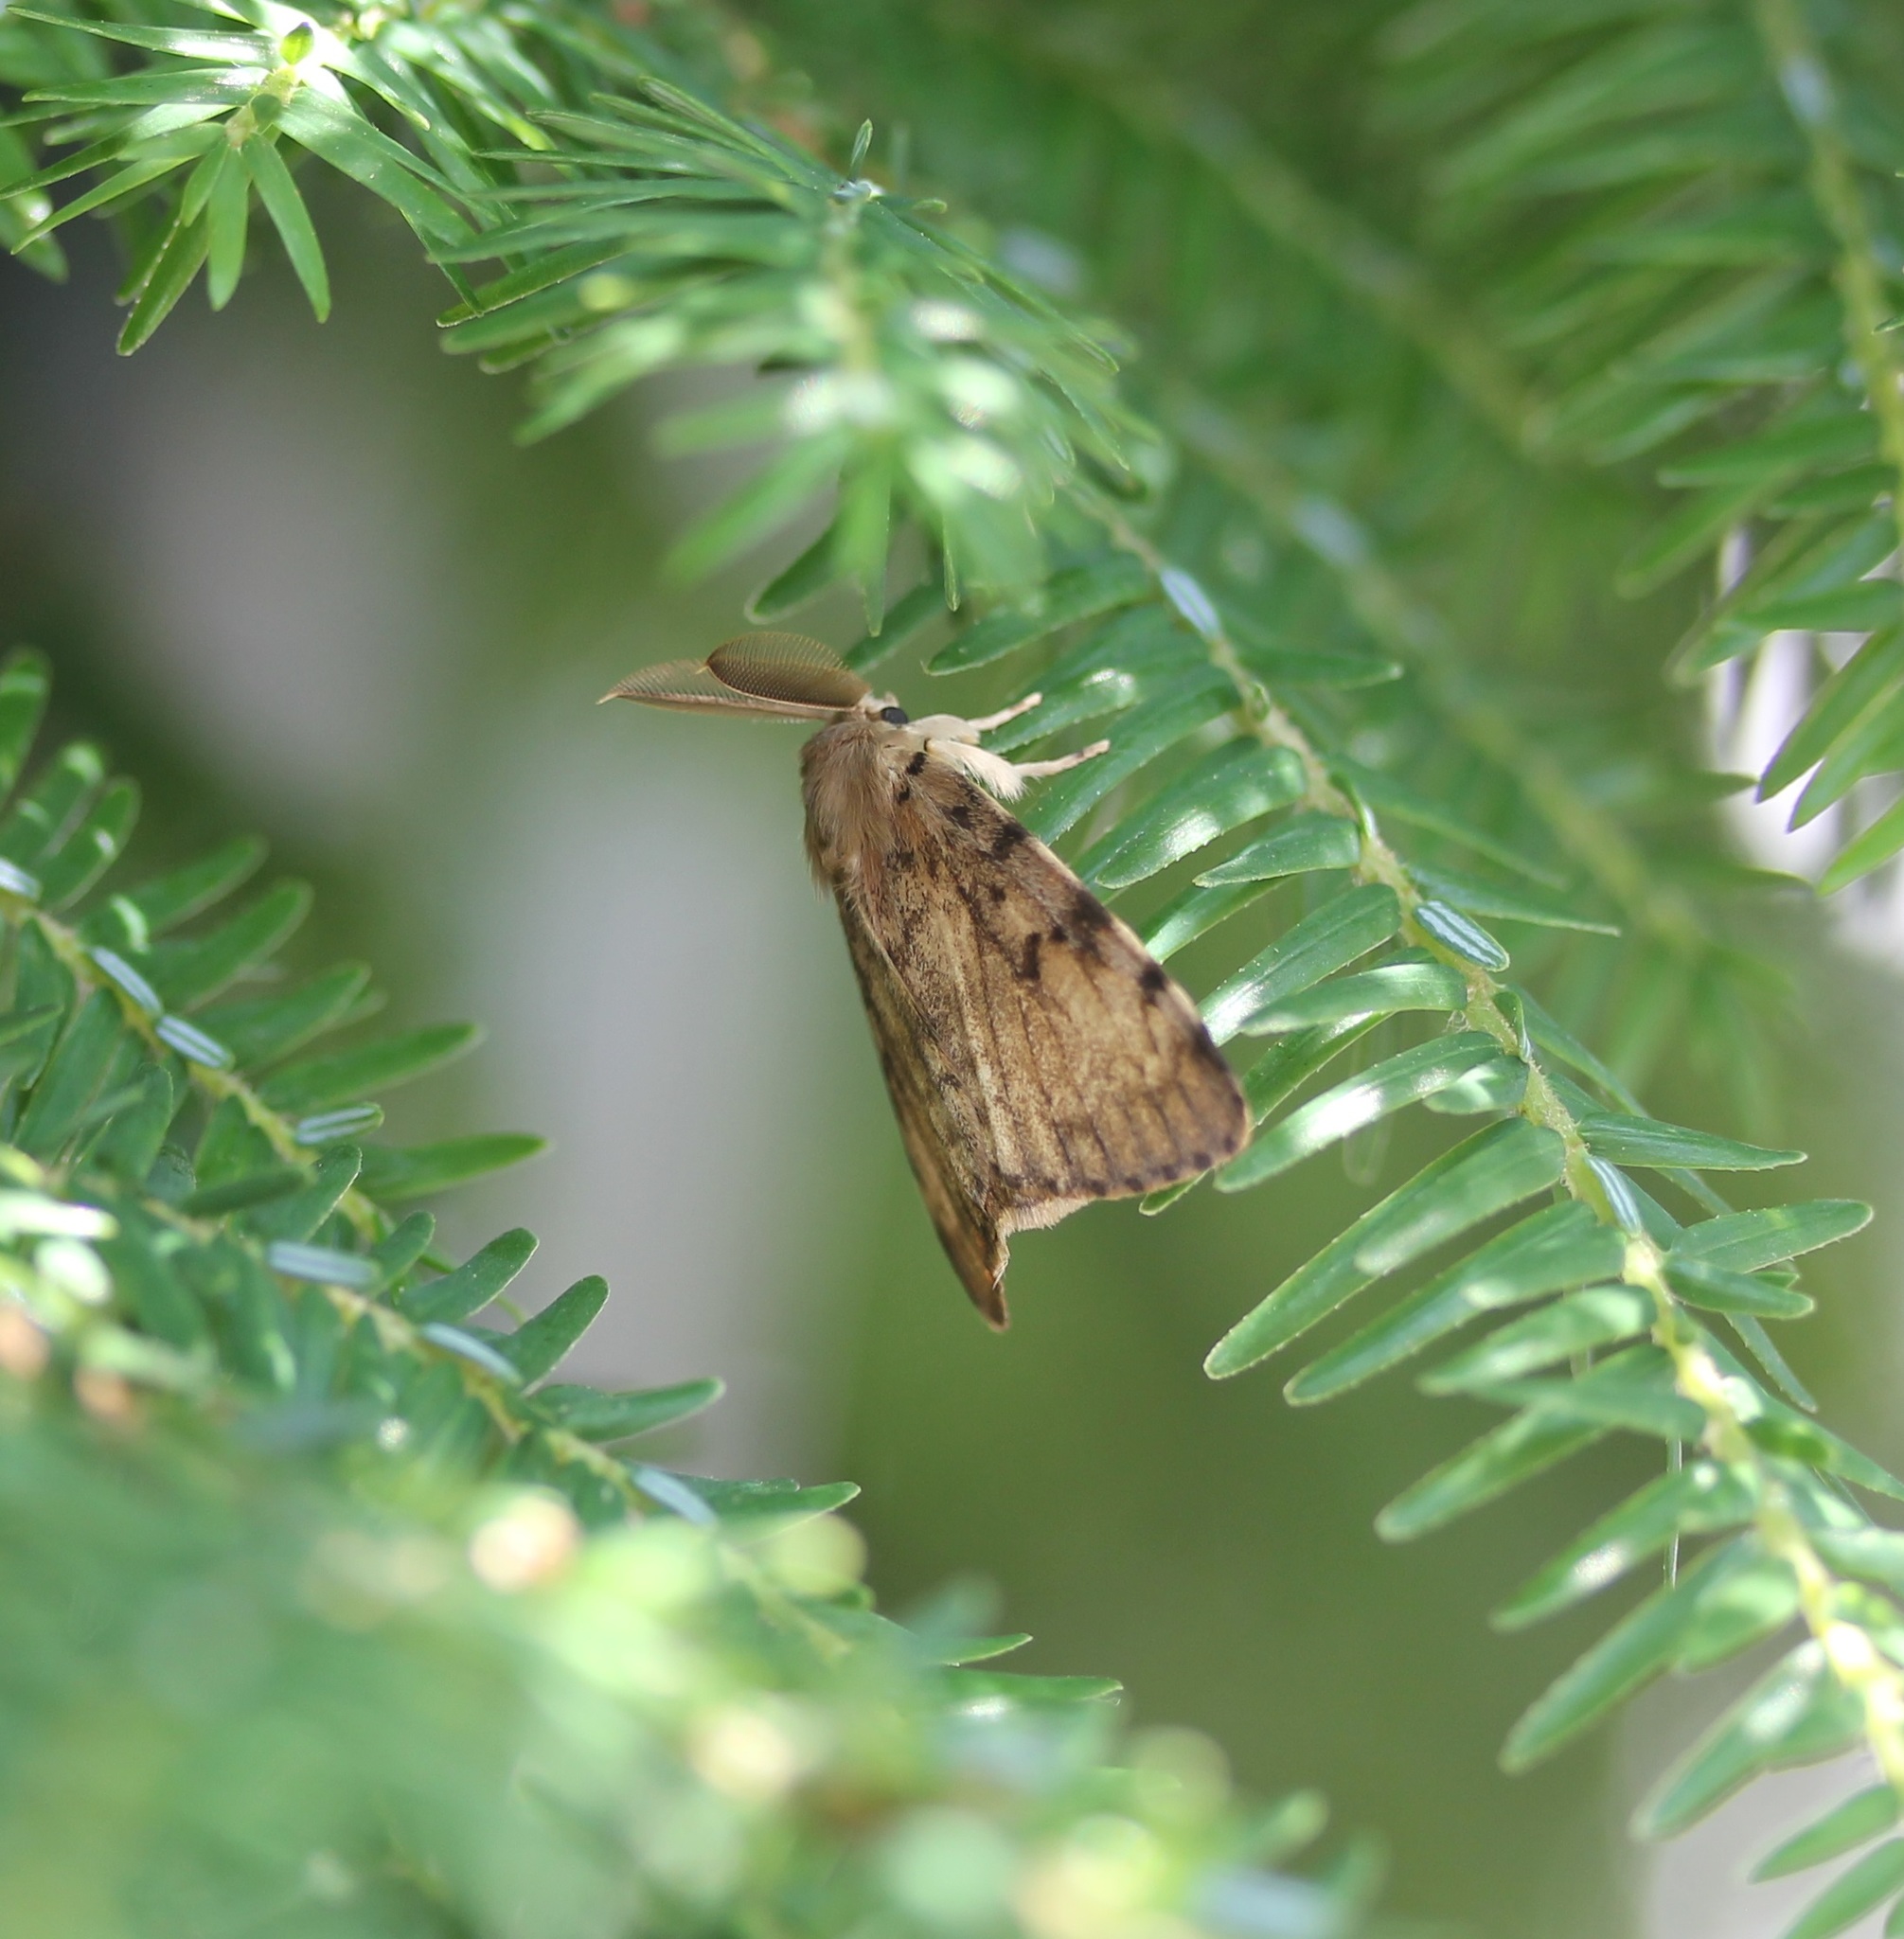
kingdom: Animalia
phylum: Arthropoda
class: Insecta
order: Lepidoptera
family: Erebidae
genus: Lymantria
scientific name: Lymantria dispar
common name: Gypsy moth
